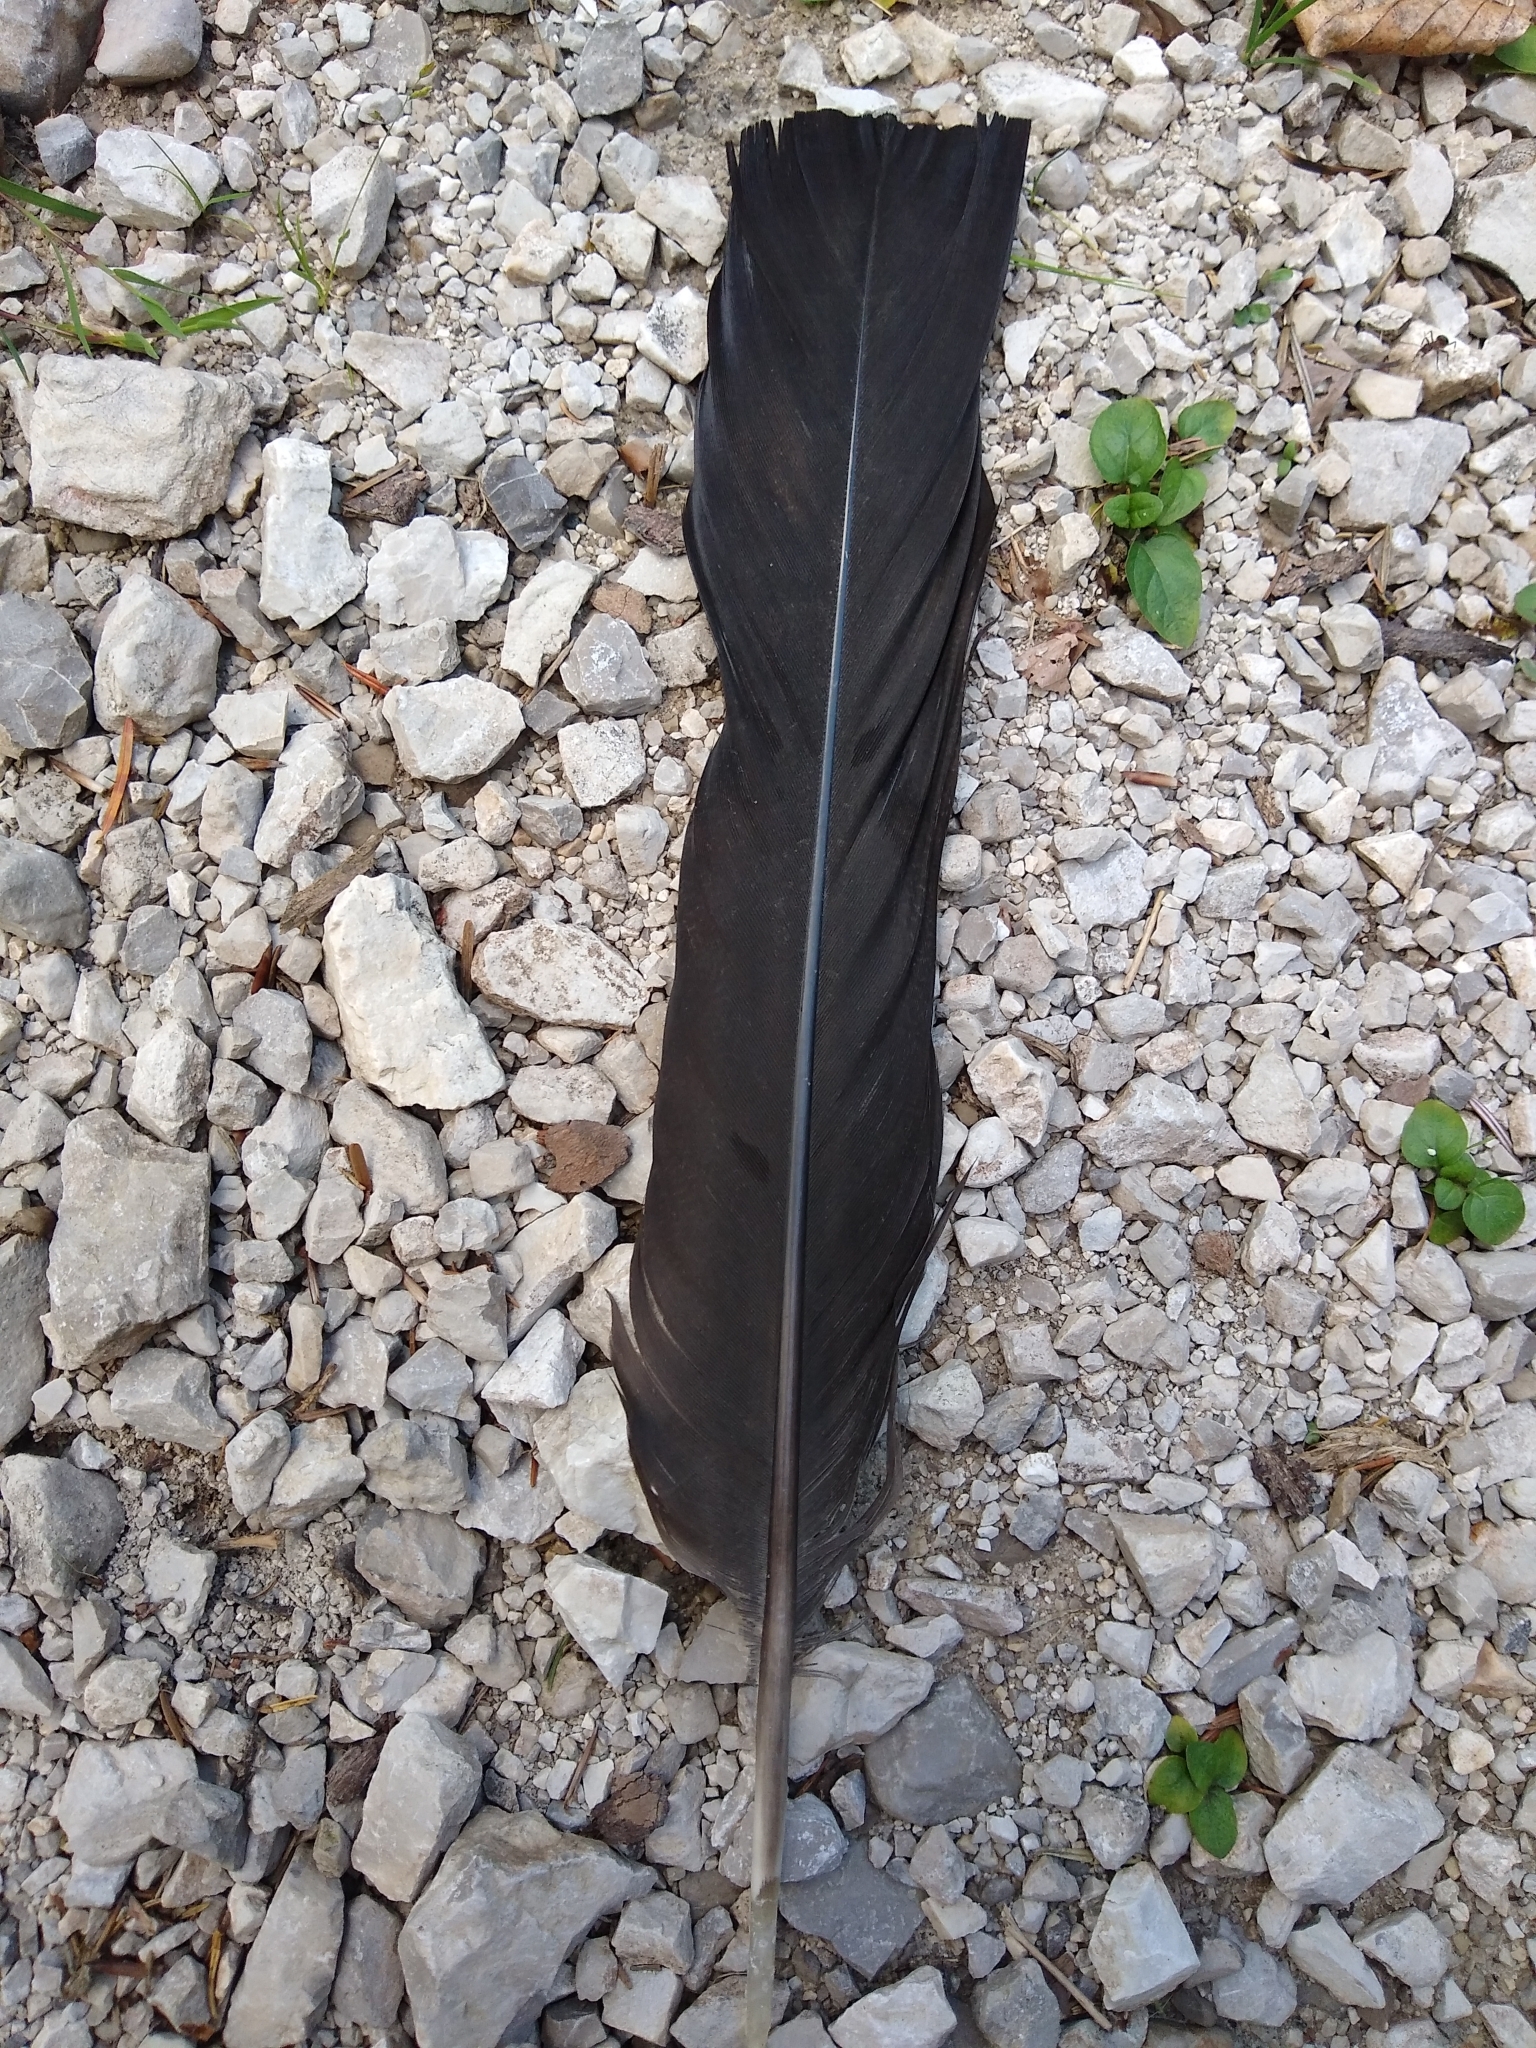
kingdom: Animalia
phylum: Chordata
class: Aves
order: Galliformes
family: Phasianidae
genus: Tetrao
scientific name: Tetrao urogallus
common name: Western capercaillie
